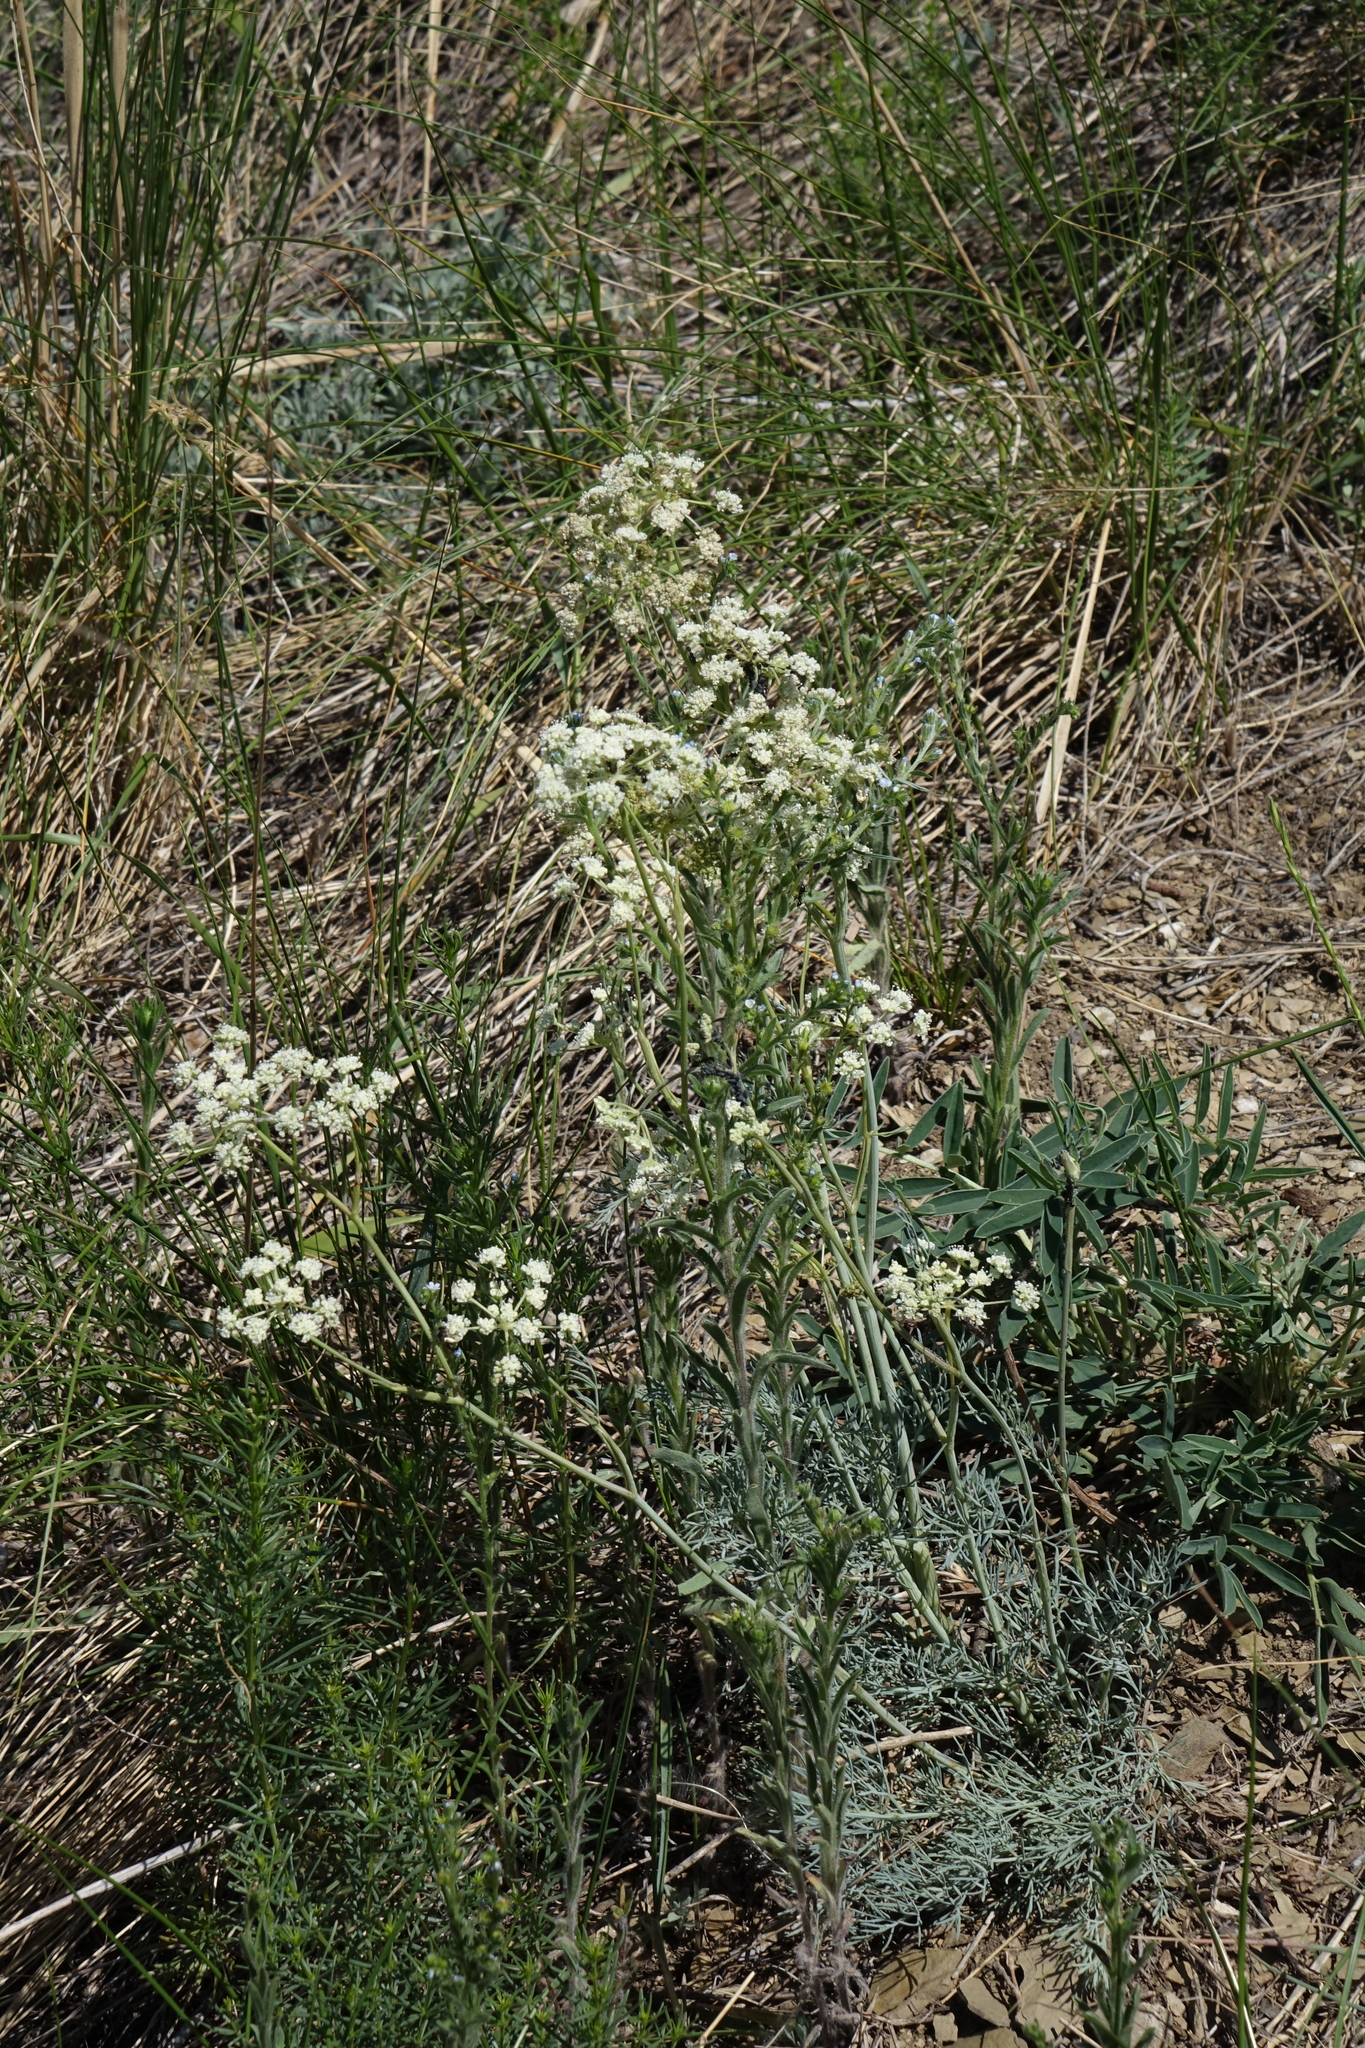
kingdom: Plantae
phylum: Tracheophyta
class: Magnoliopsida
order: Apiales
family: Apiaceae
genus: Seseli
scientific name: Seseli ledebourii
